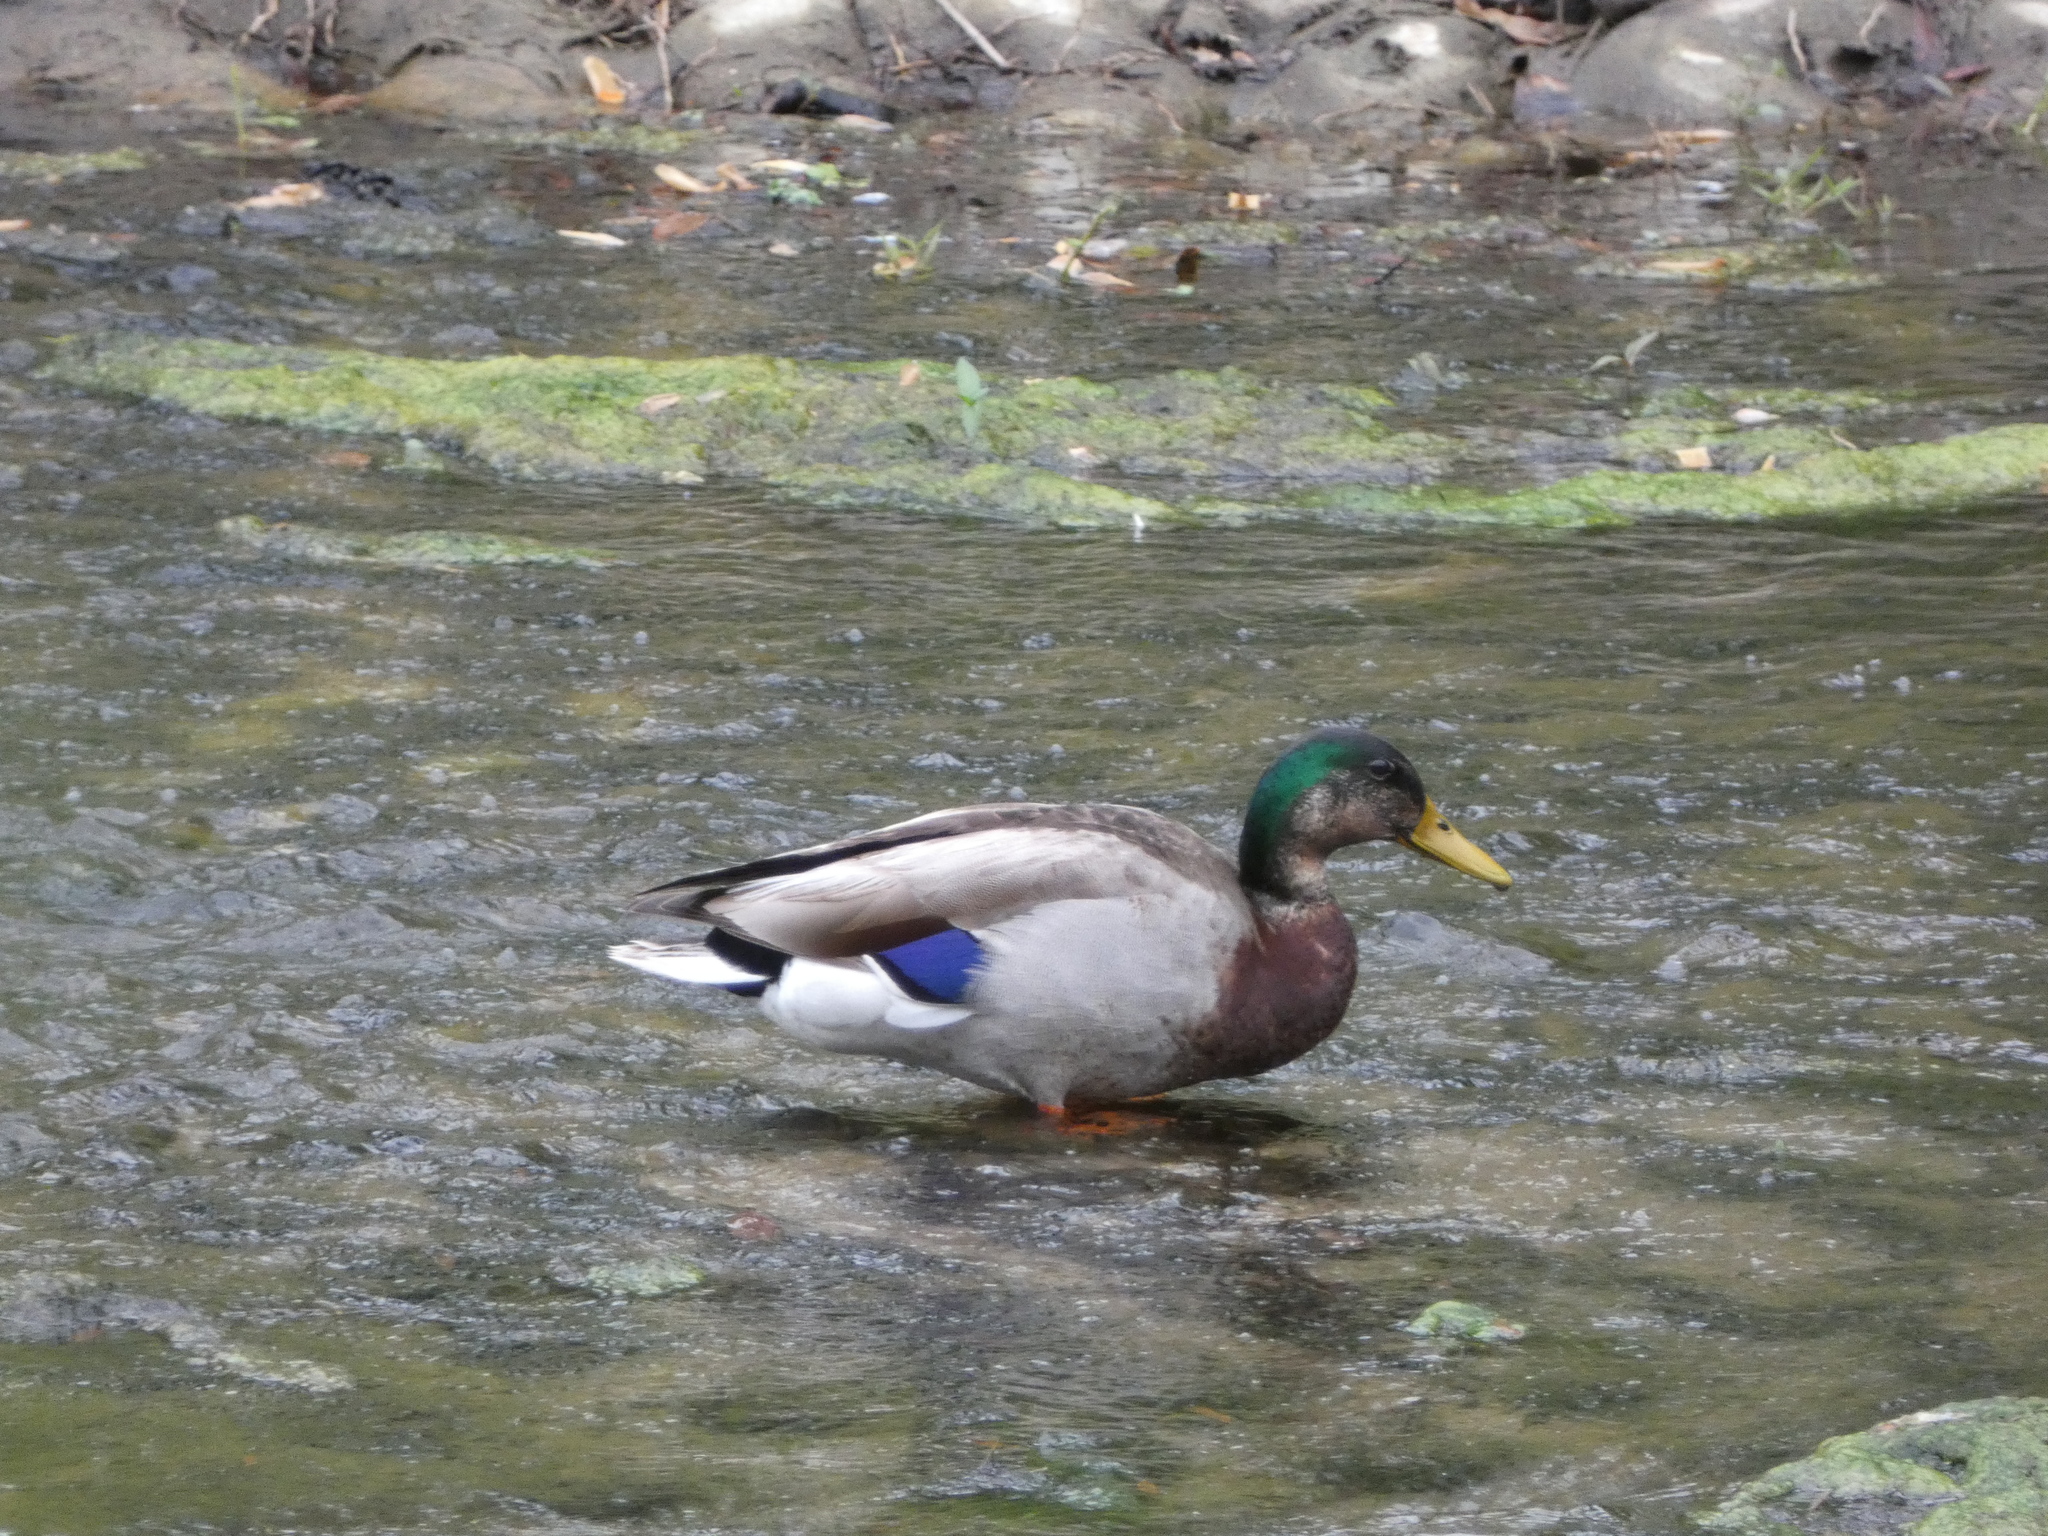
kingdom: Animalia
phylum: Chordata
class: Aves
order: Anseriformes
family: Anatidae
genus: Anas
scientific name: Anas platyrhynchos
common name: Mallard
